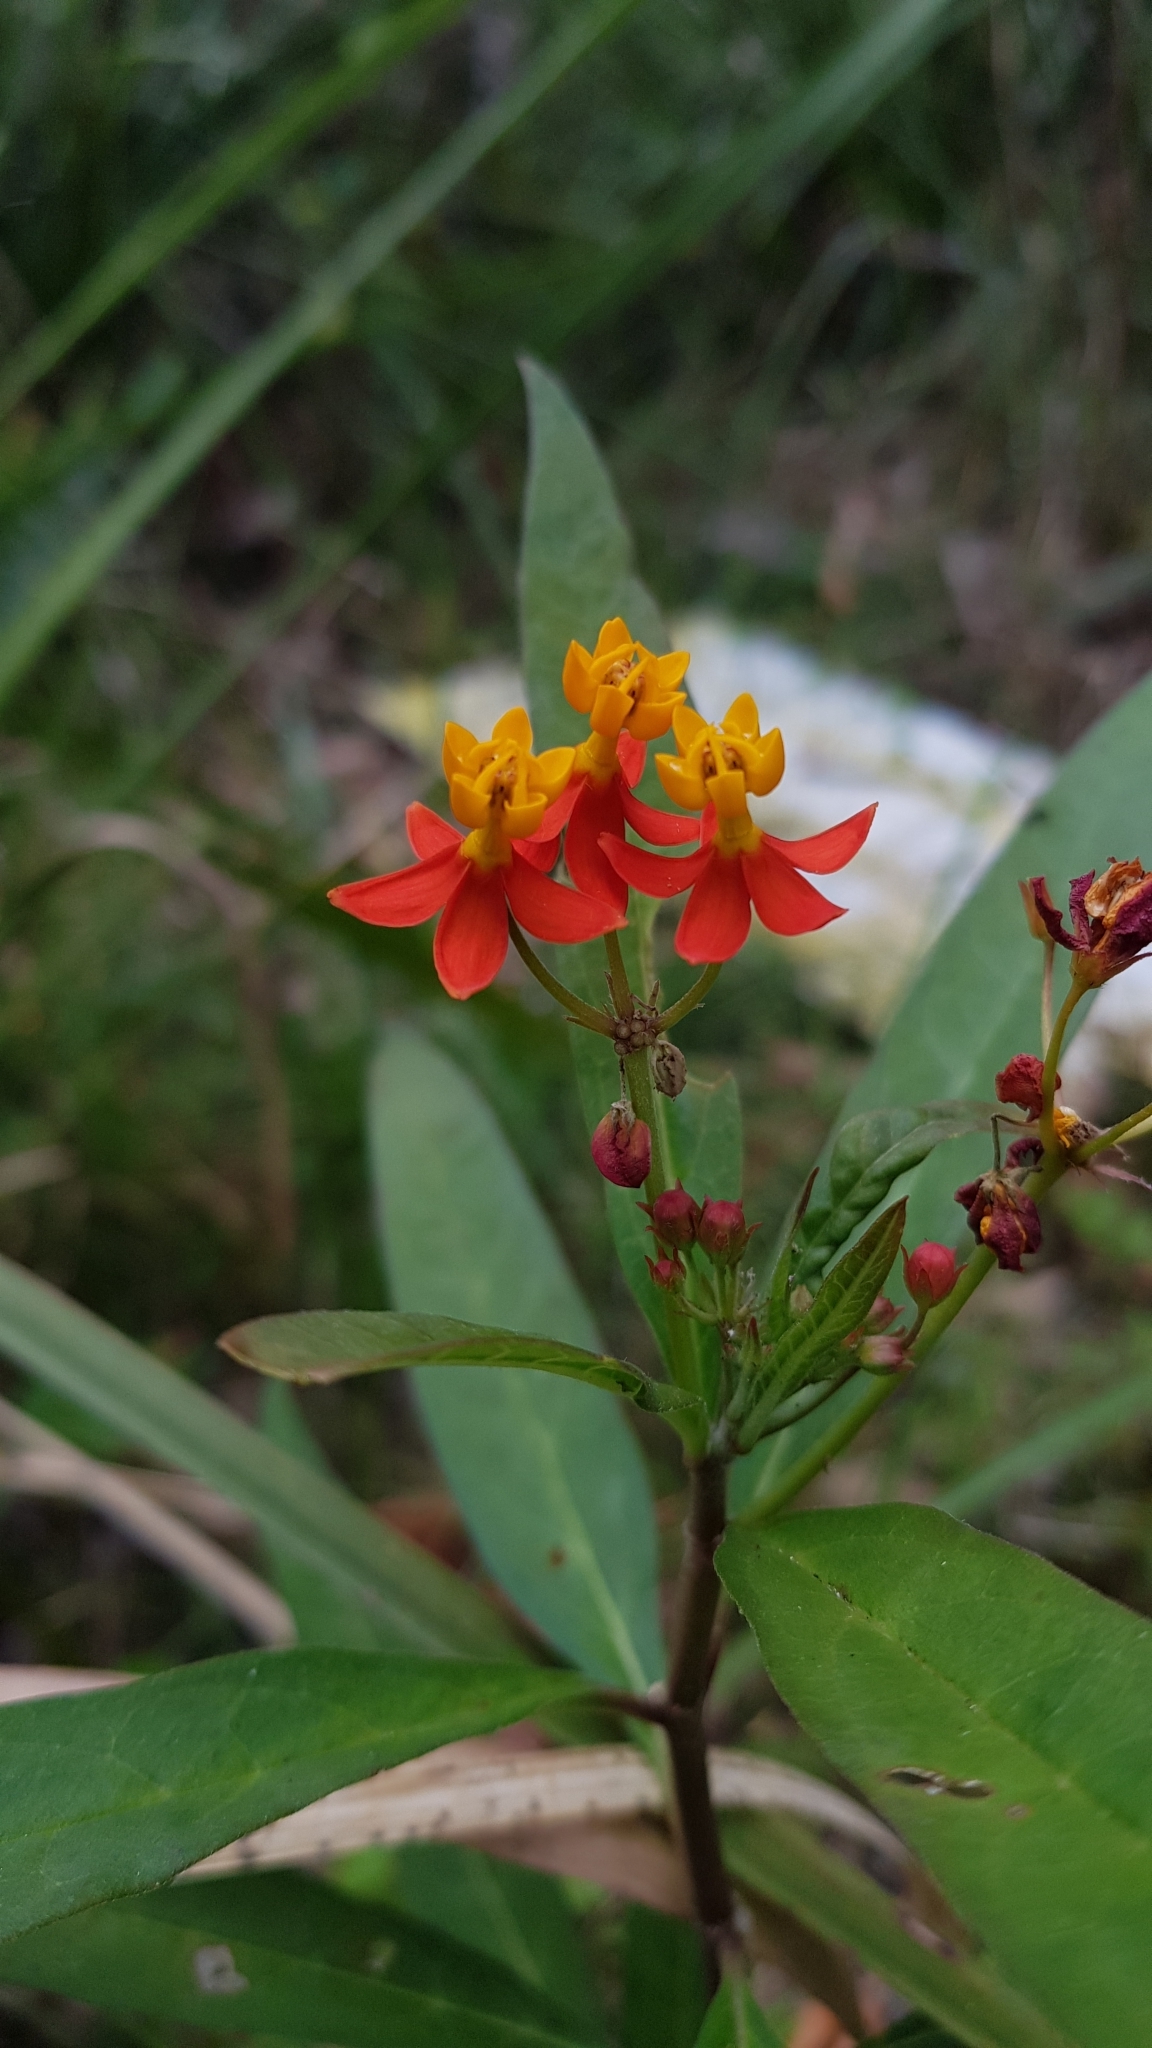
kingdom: Plantae
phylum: Tracheophyta
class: Magnoliopsida
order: Gentianales
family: Apocynaceae
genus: Asclepias
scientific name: Asclepias curassavica
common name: Bloodflower
